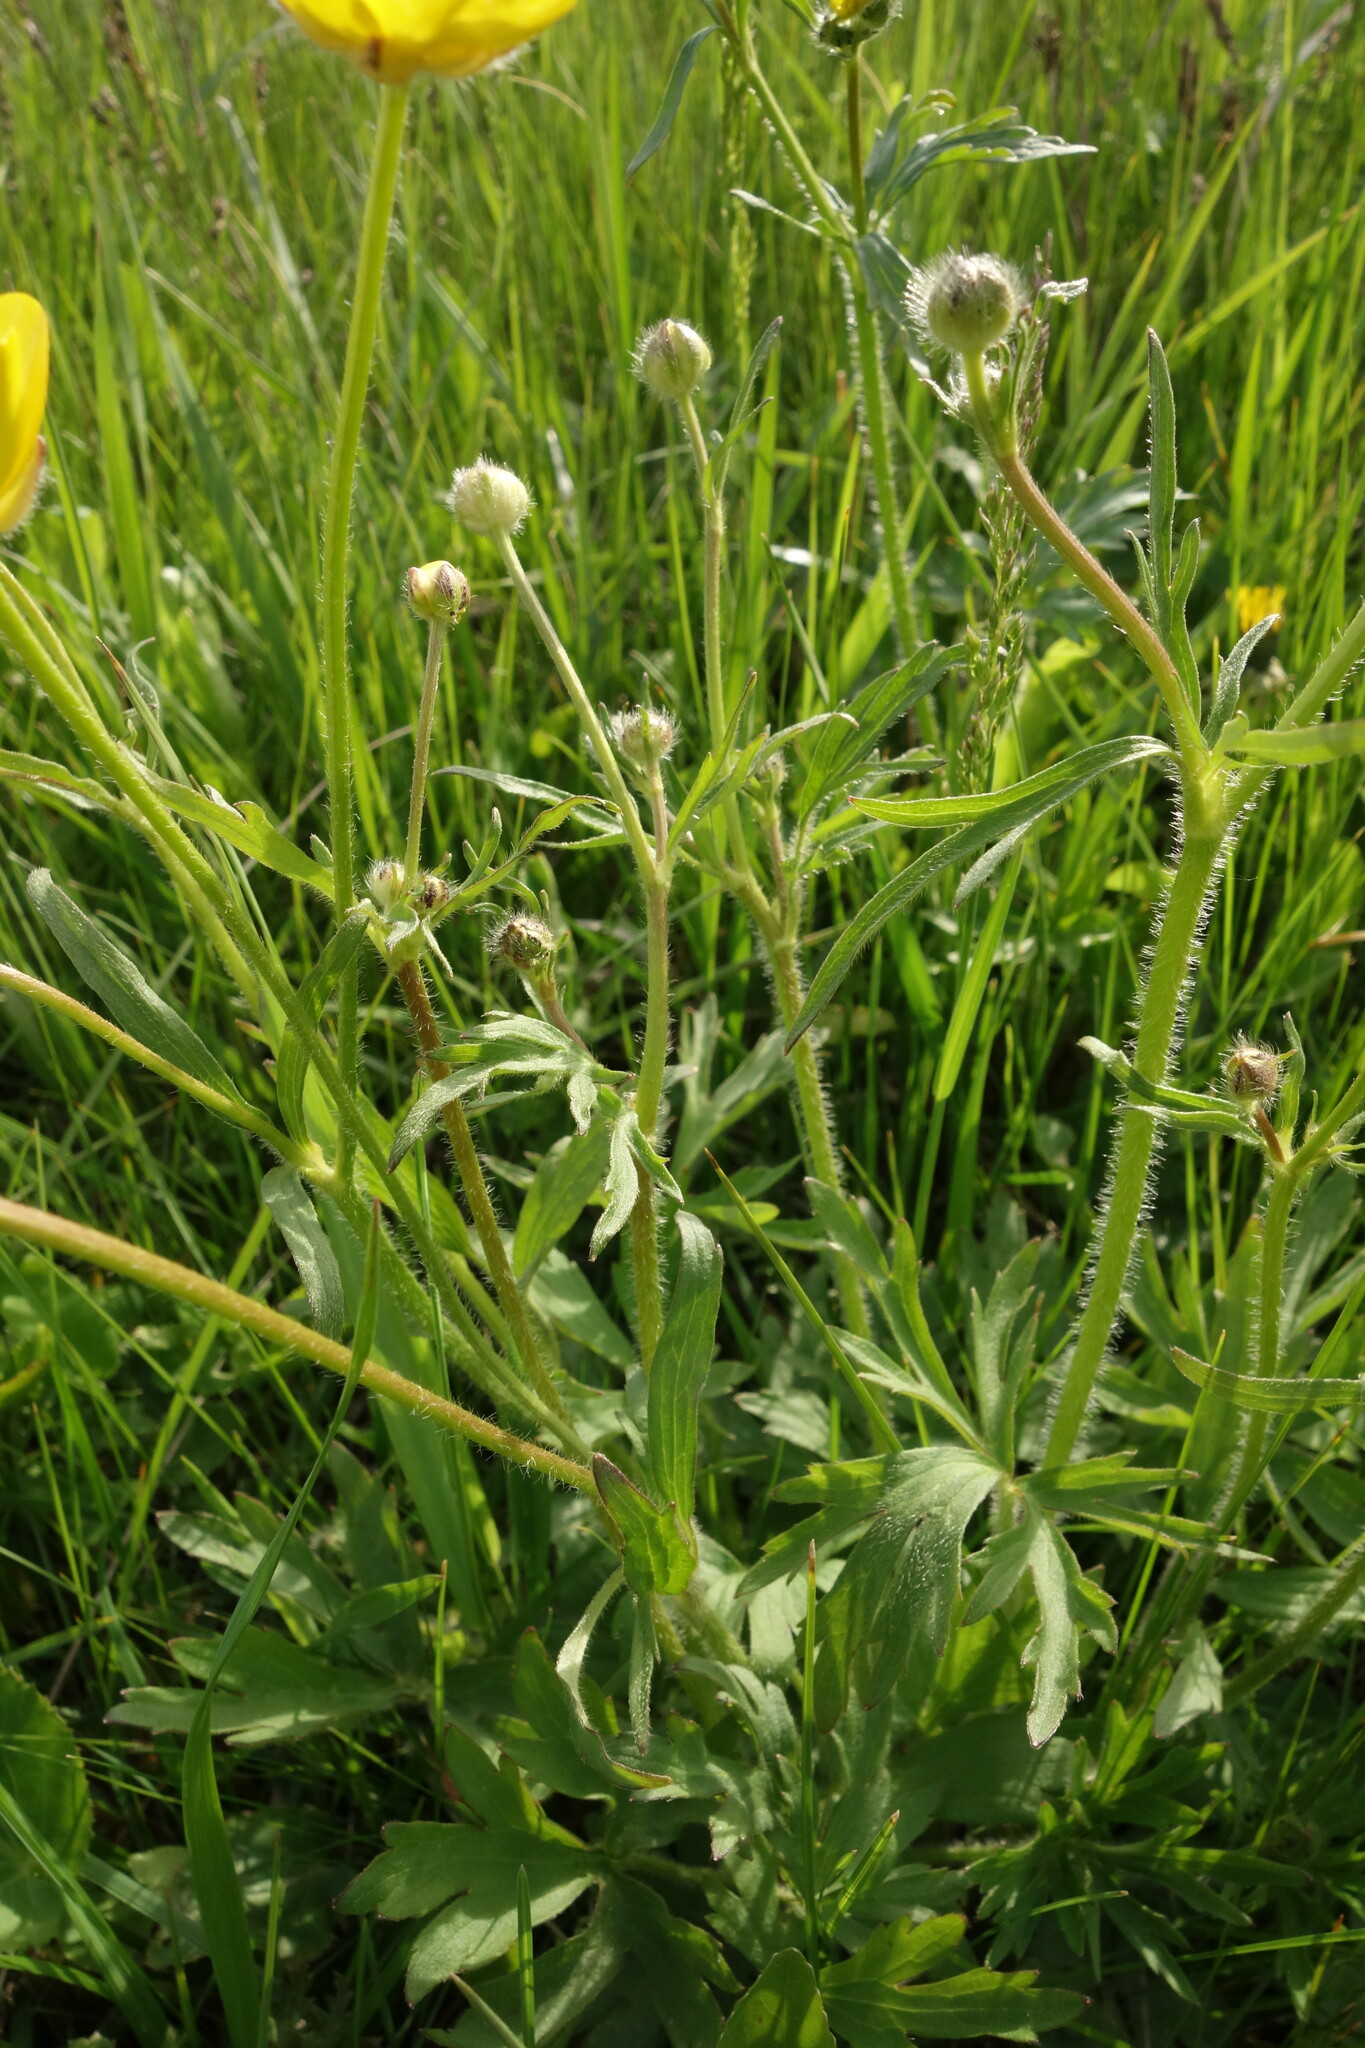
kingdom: Plantae
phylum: Tracheophyta
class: Magnoliopsida
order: Ranunculales
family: Ranunculaceae
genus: Ranunculus
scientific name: Ranunculus polyanthemos
